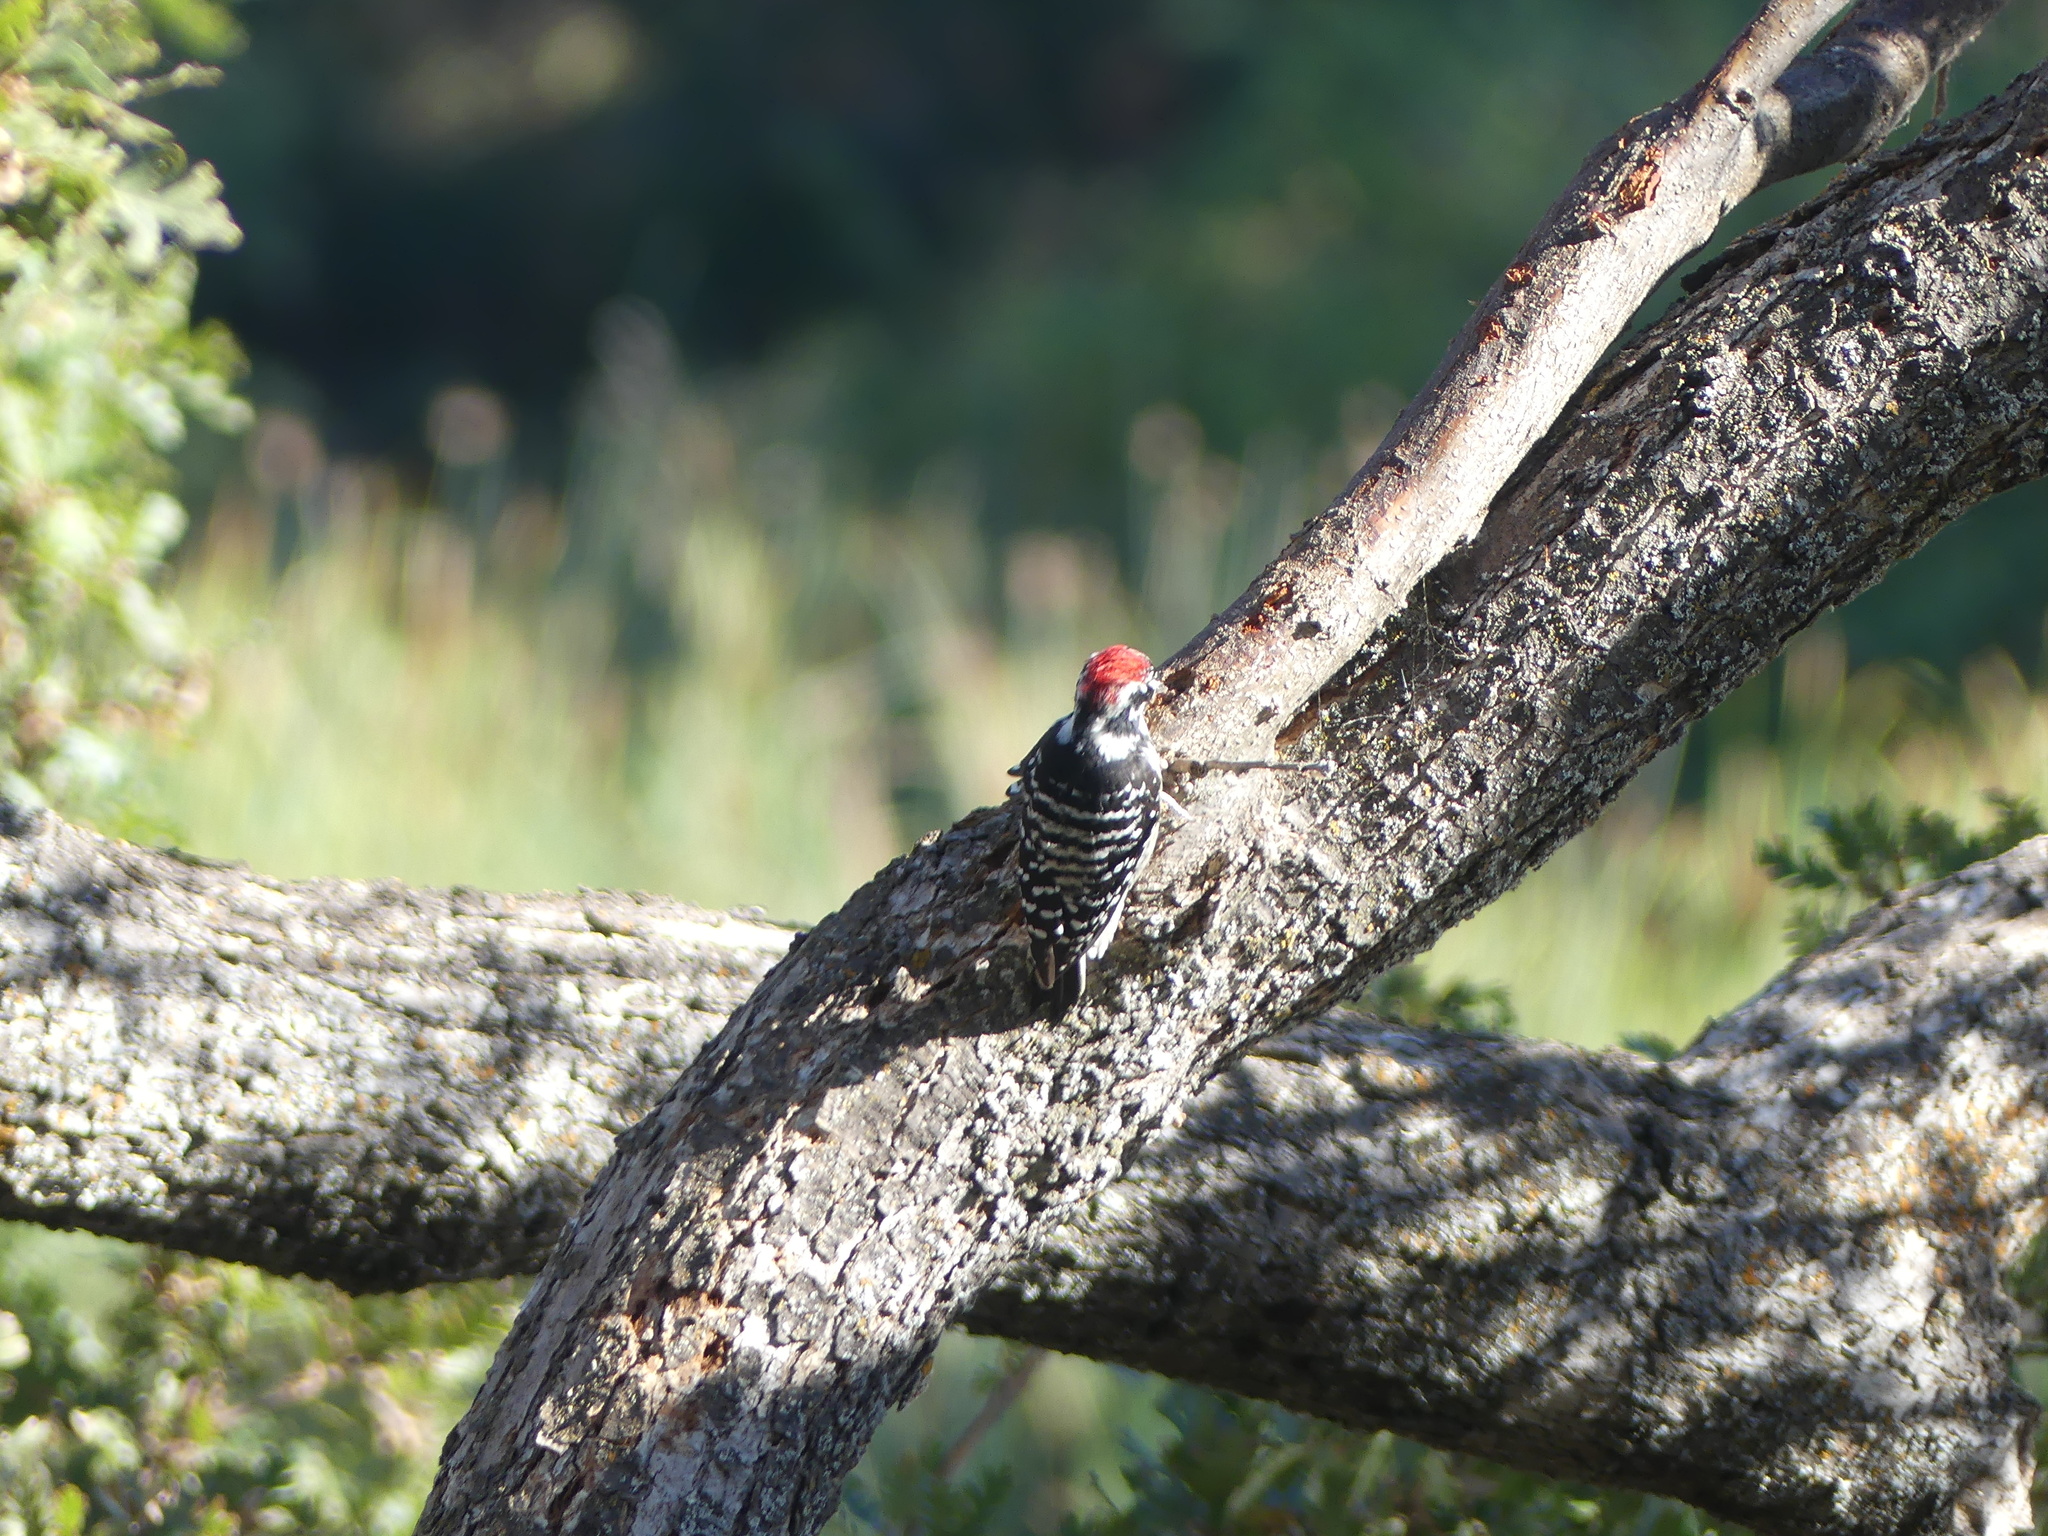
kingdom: Animalia
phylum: Chordata
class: Aves
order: Piciformes
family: Picidae
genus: Dryobates
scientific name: Dryobates nuttallii
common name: Nuttall's woodpecker
